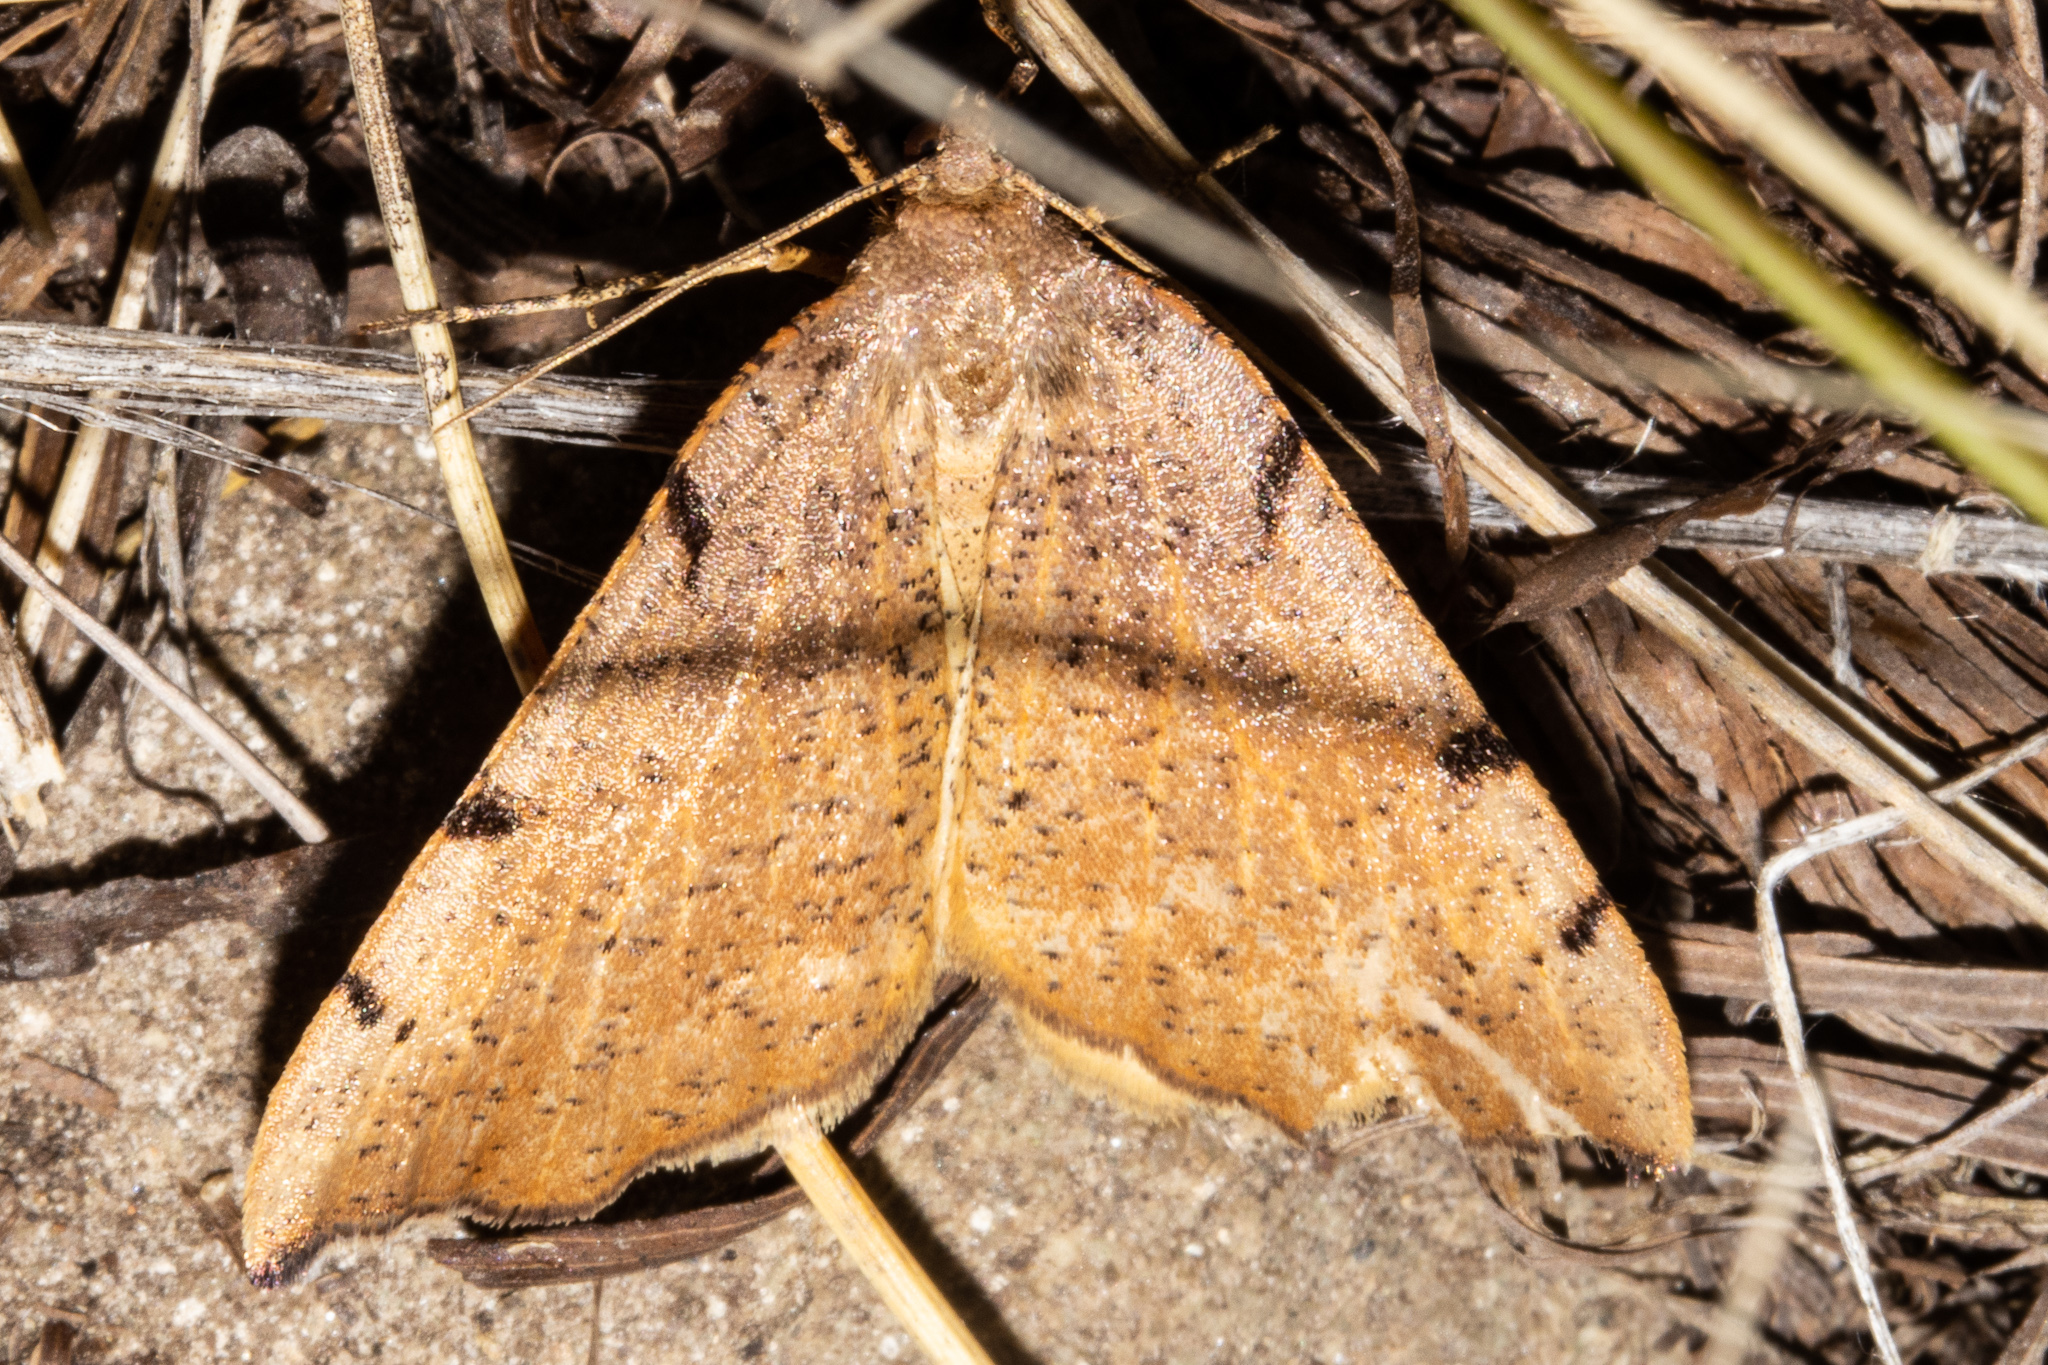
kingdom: Animalia
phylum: Arthropoda
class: Insecta
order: Lepidoptera
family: Geometridae
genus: Sestra
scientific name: Sestra humeraria
